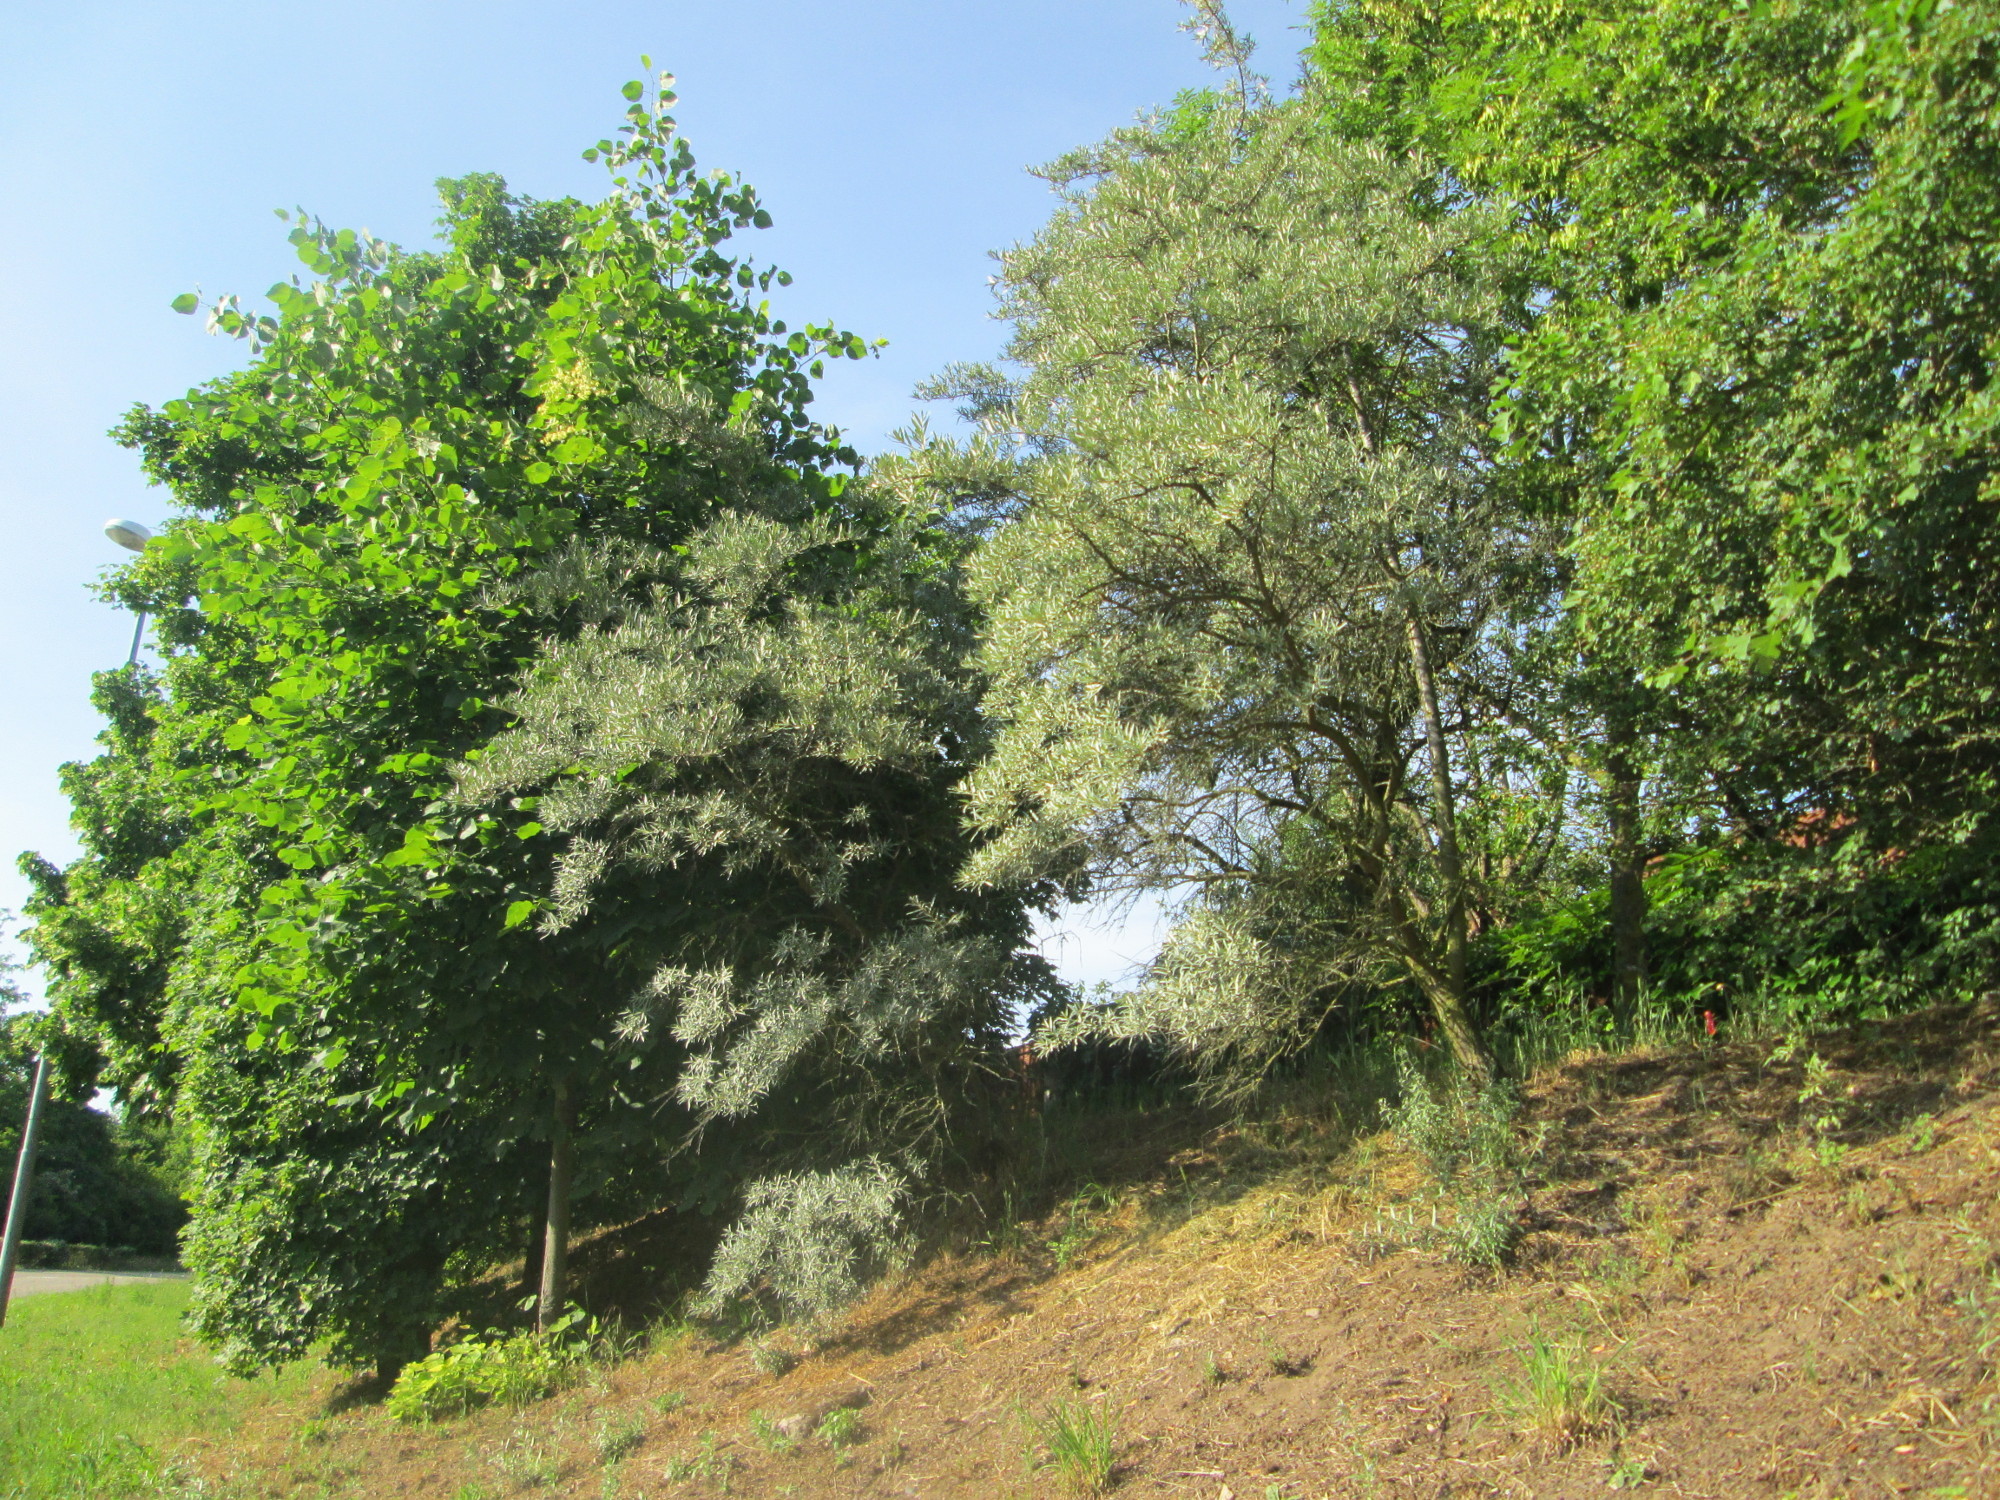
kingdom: Plantae
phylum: Tracheophyta
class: Magnoliopsida
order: Rosales
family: Elaeagnaceae
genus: Hippophae
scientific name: Hippophae rhamnoides
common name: Sea-buckthorn
